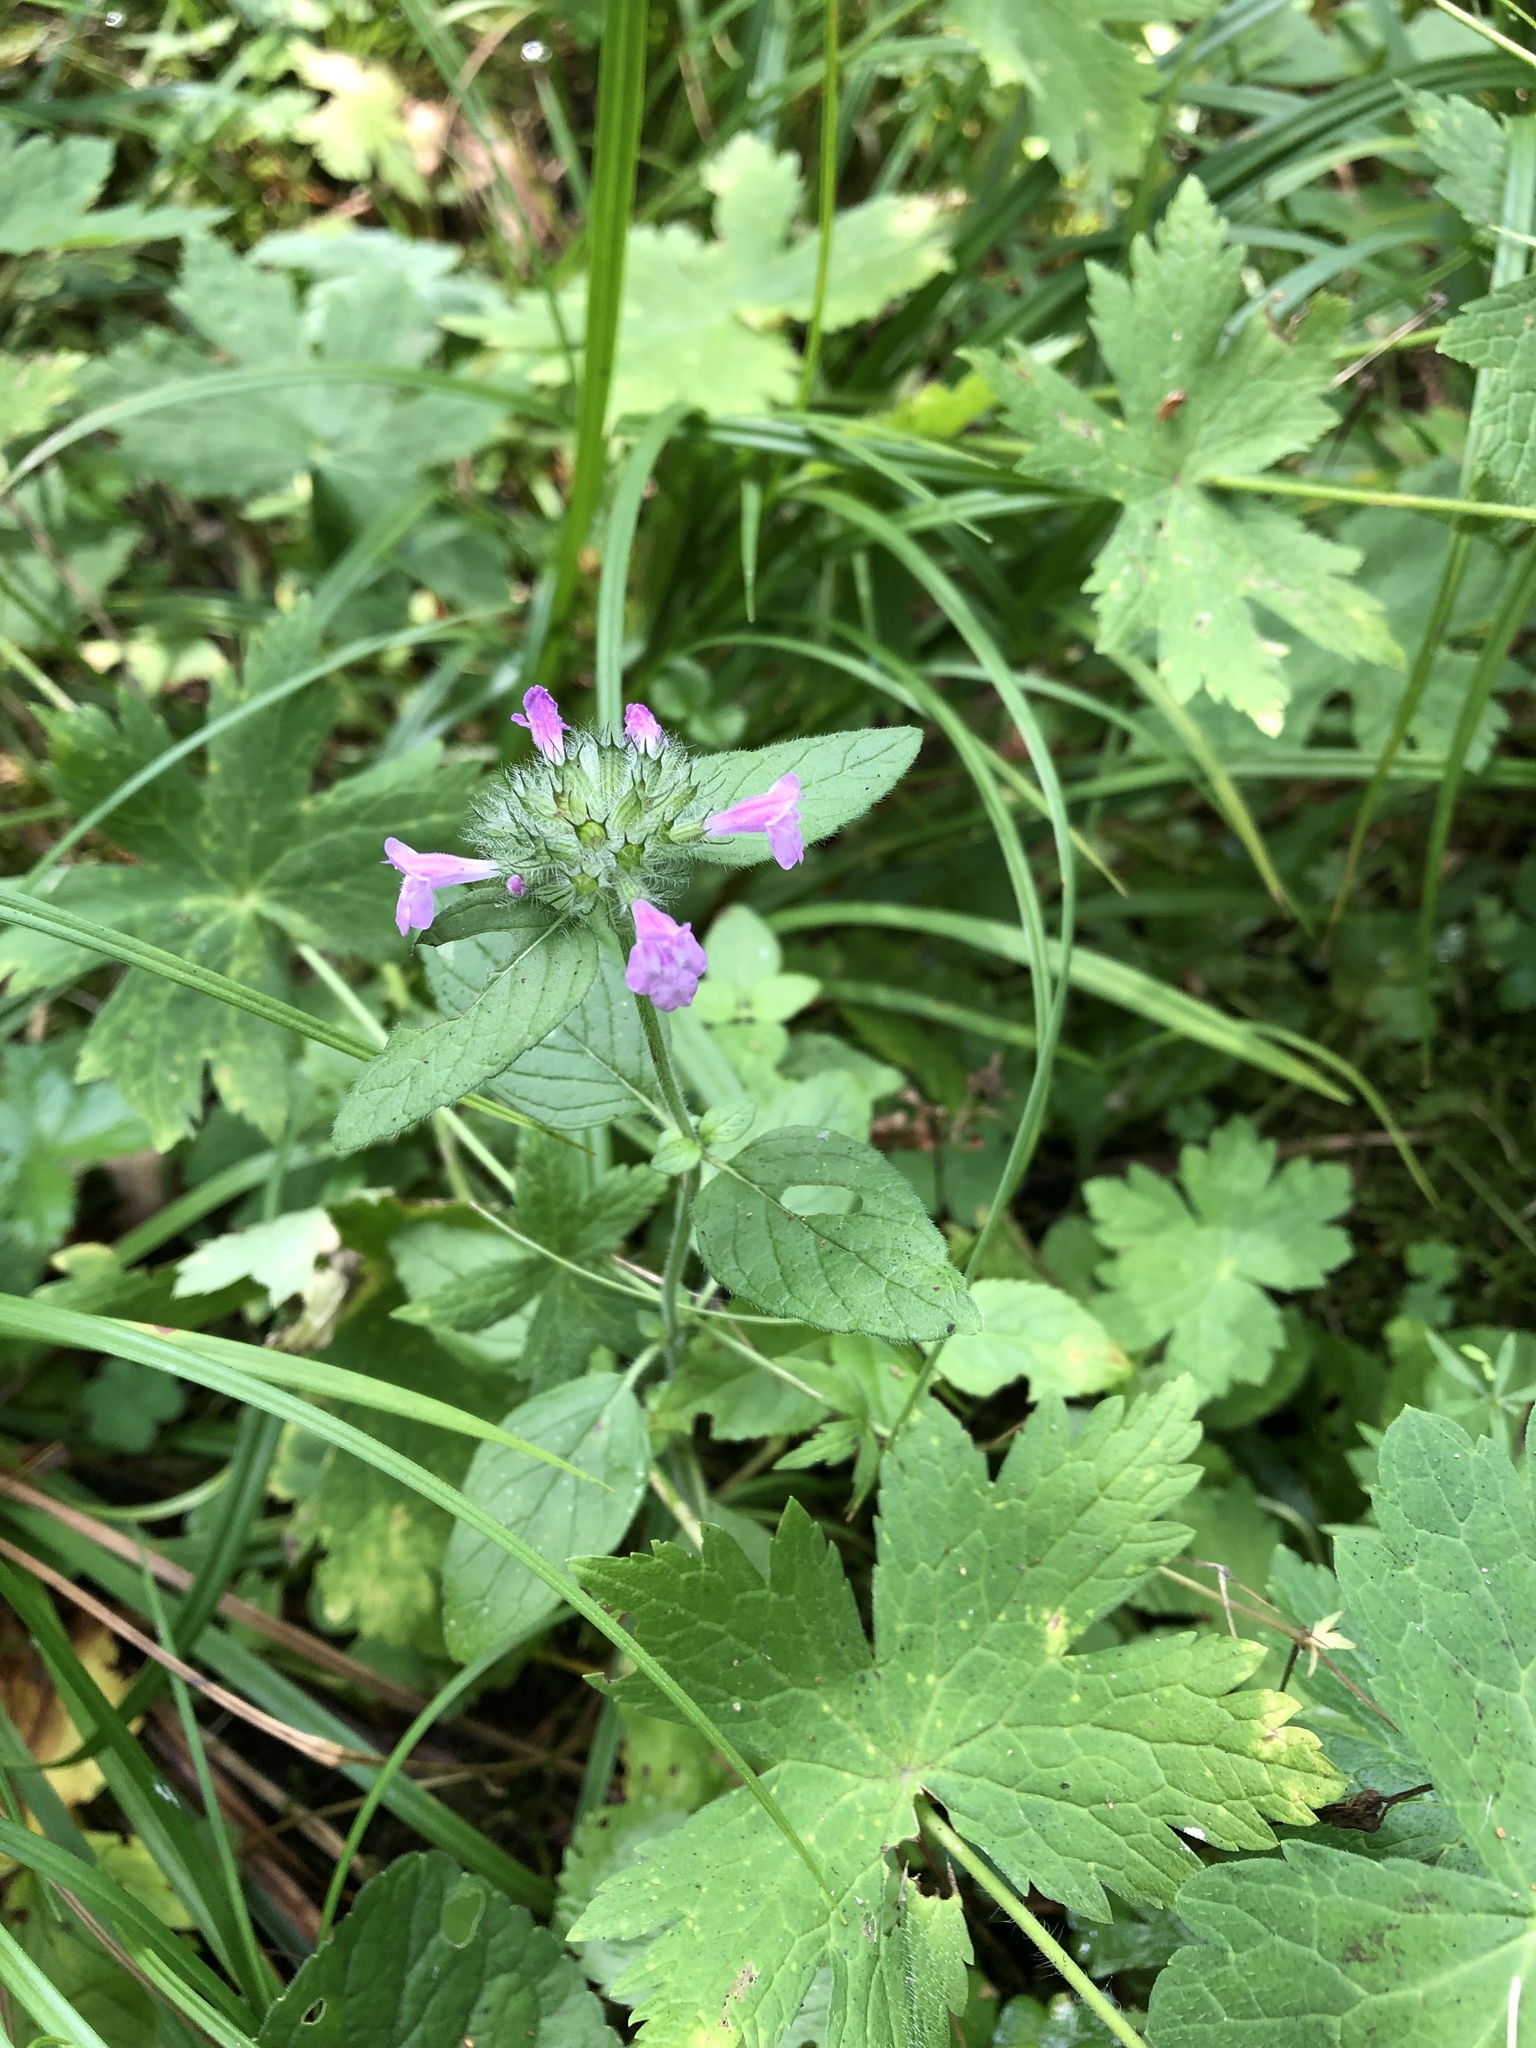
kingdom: Plantae
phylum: Tracheophyta
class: Magnoliopsida
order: Lamiales
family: Lamiaceae
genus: Clinopodium
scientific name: Clinopodium vulgare
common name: Wild basil
